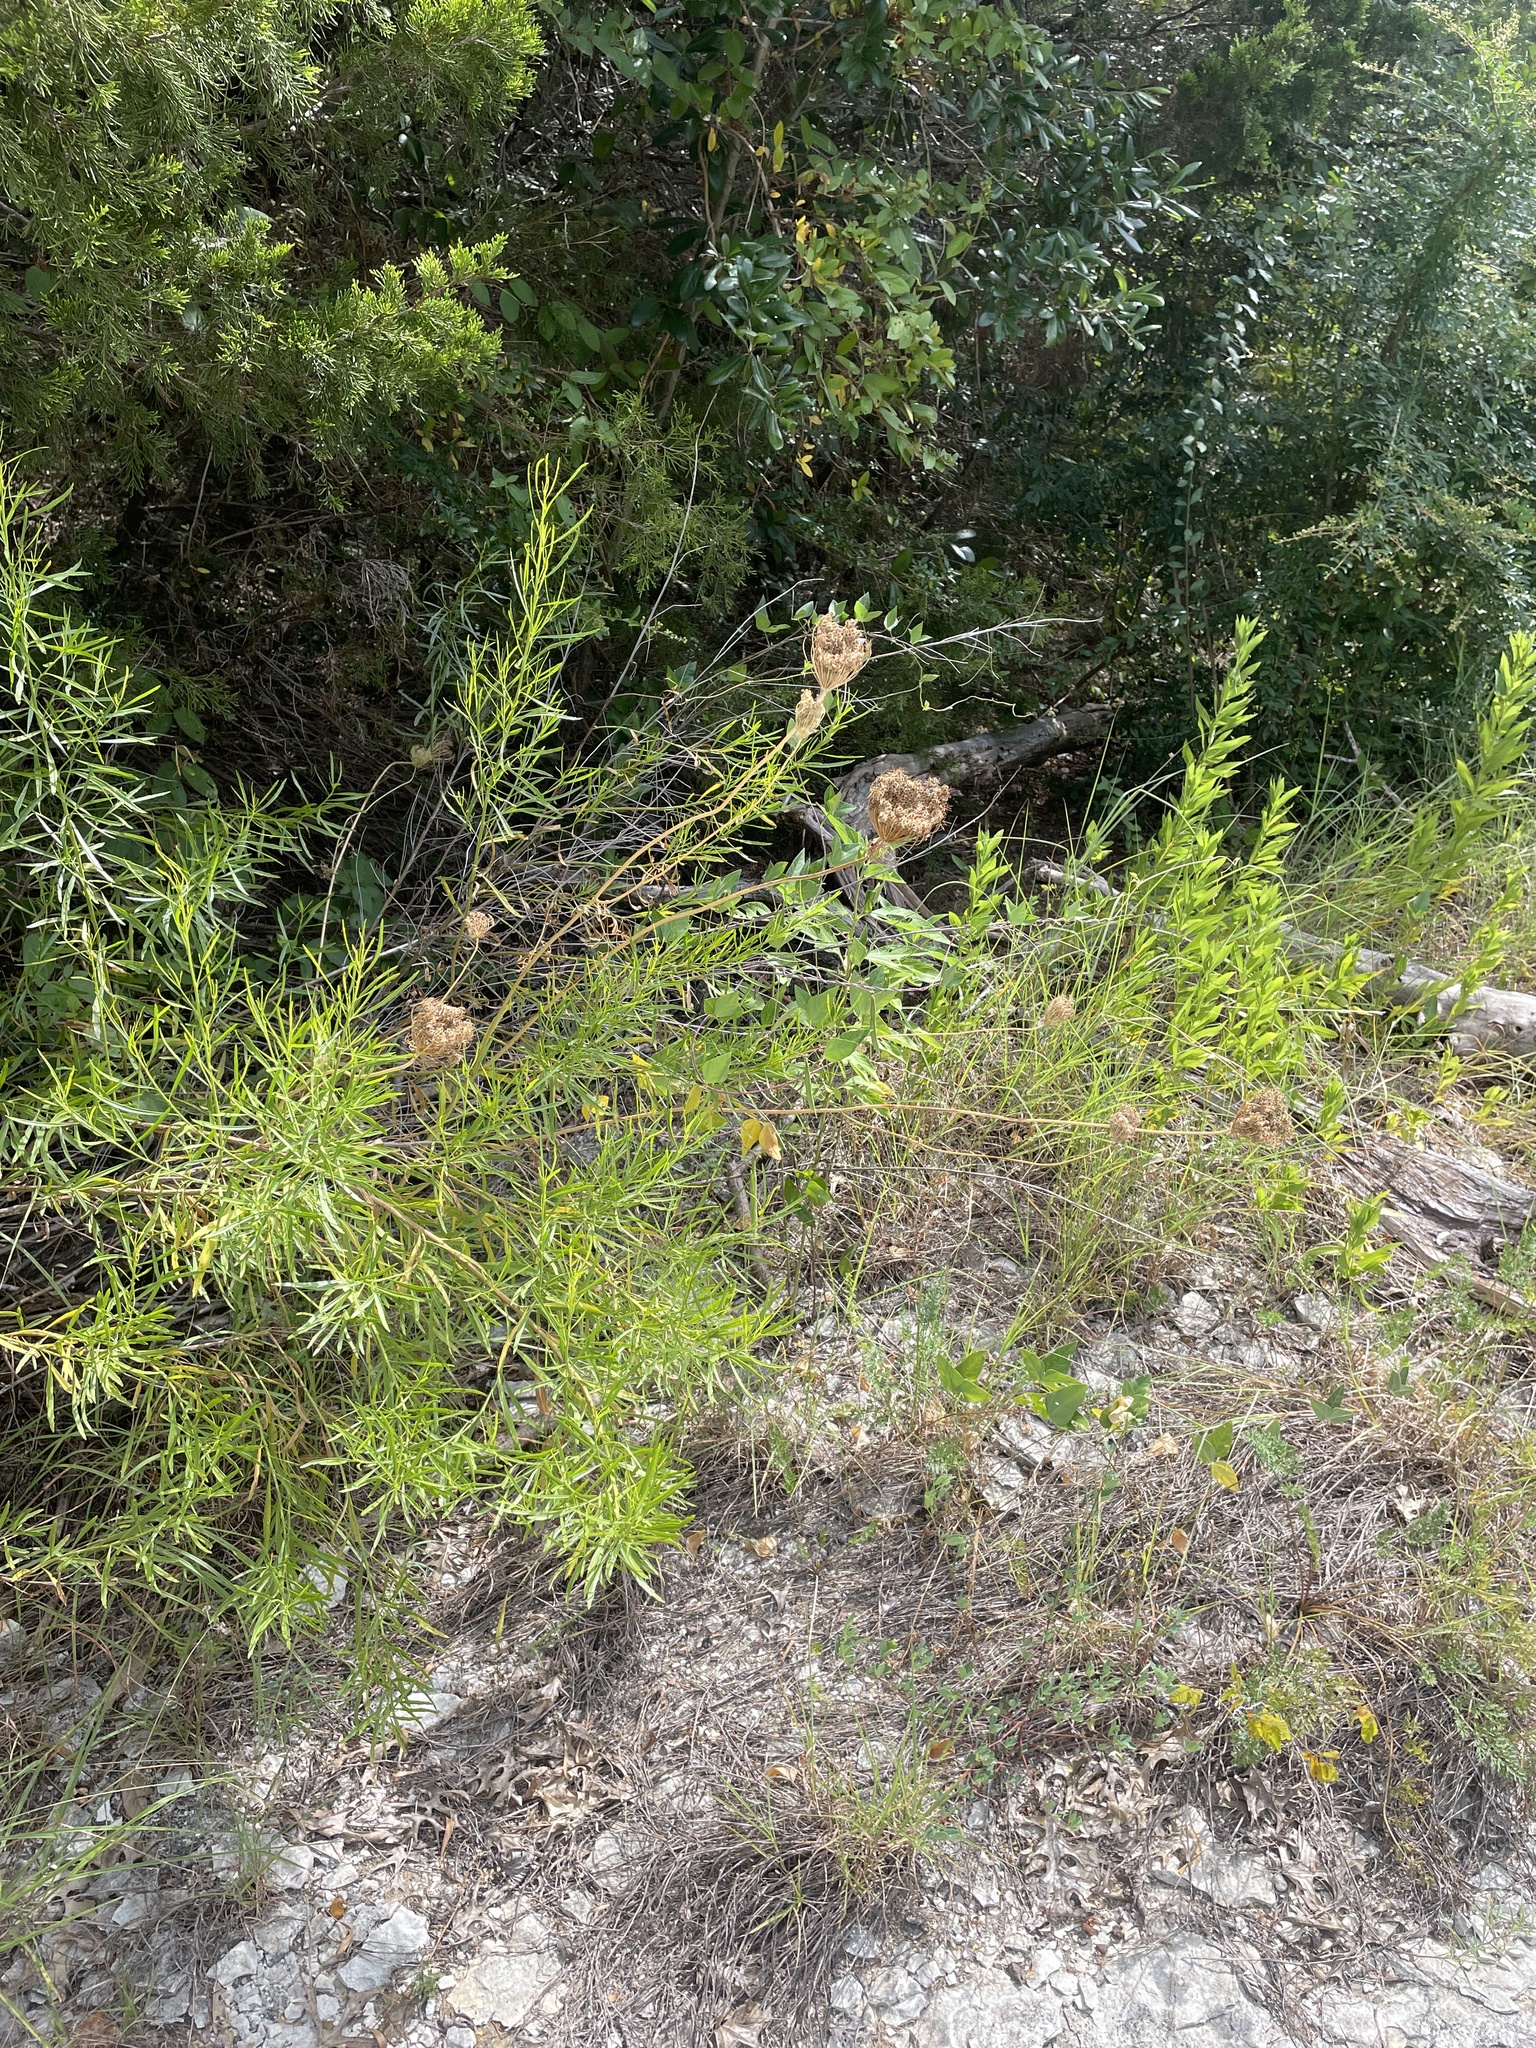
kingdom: Plantae
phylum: Tracheophyta
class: Magnoliopsida
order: Apiales
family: Apiaceae
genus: Daucus
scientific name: Daucus carota
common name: Wild carrot
